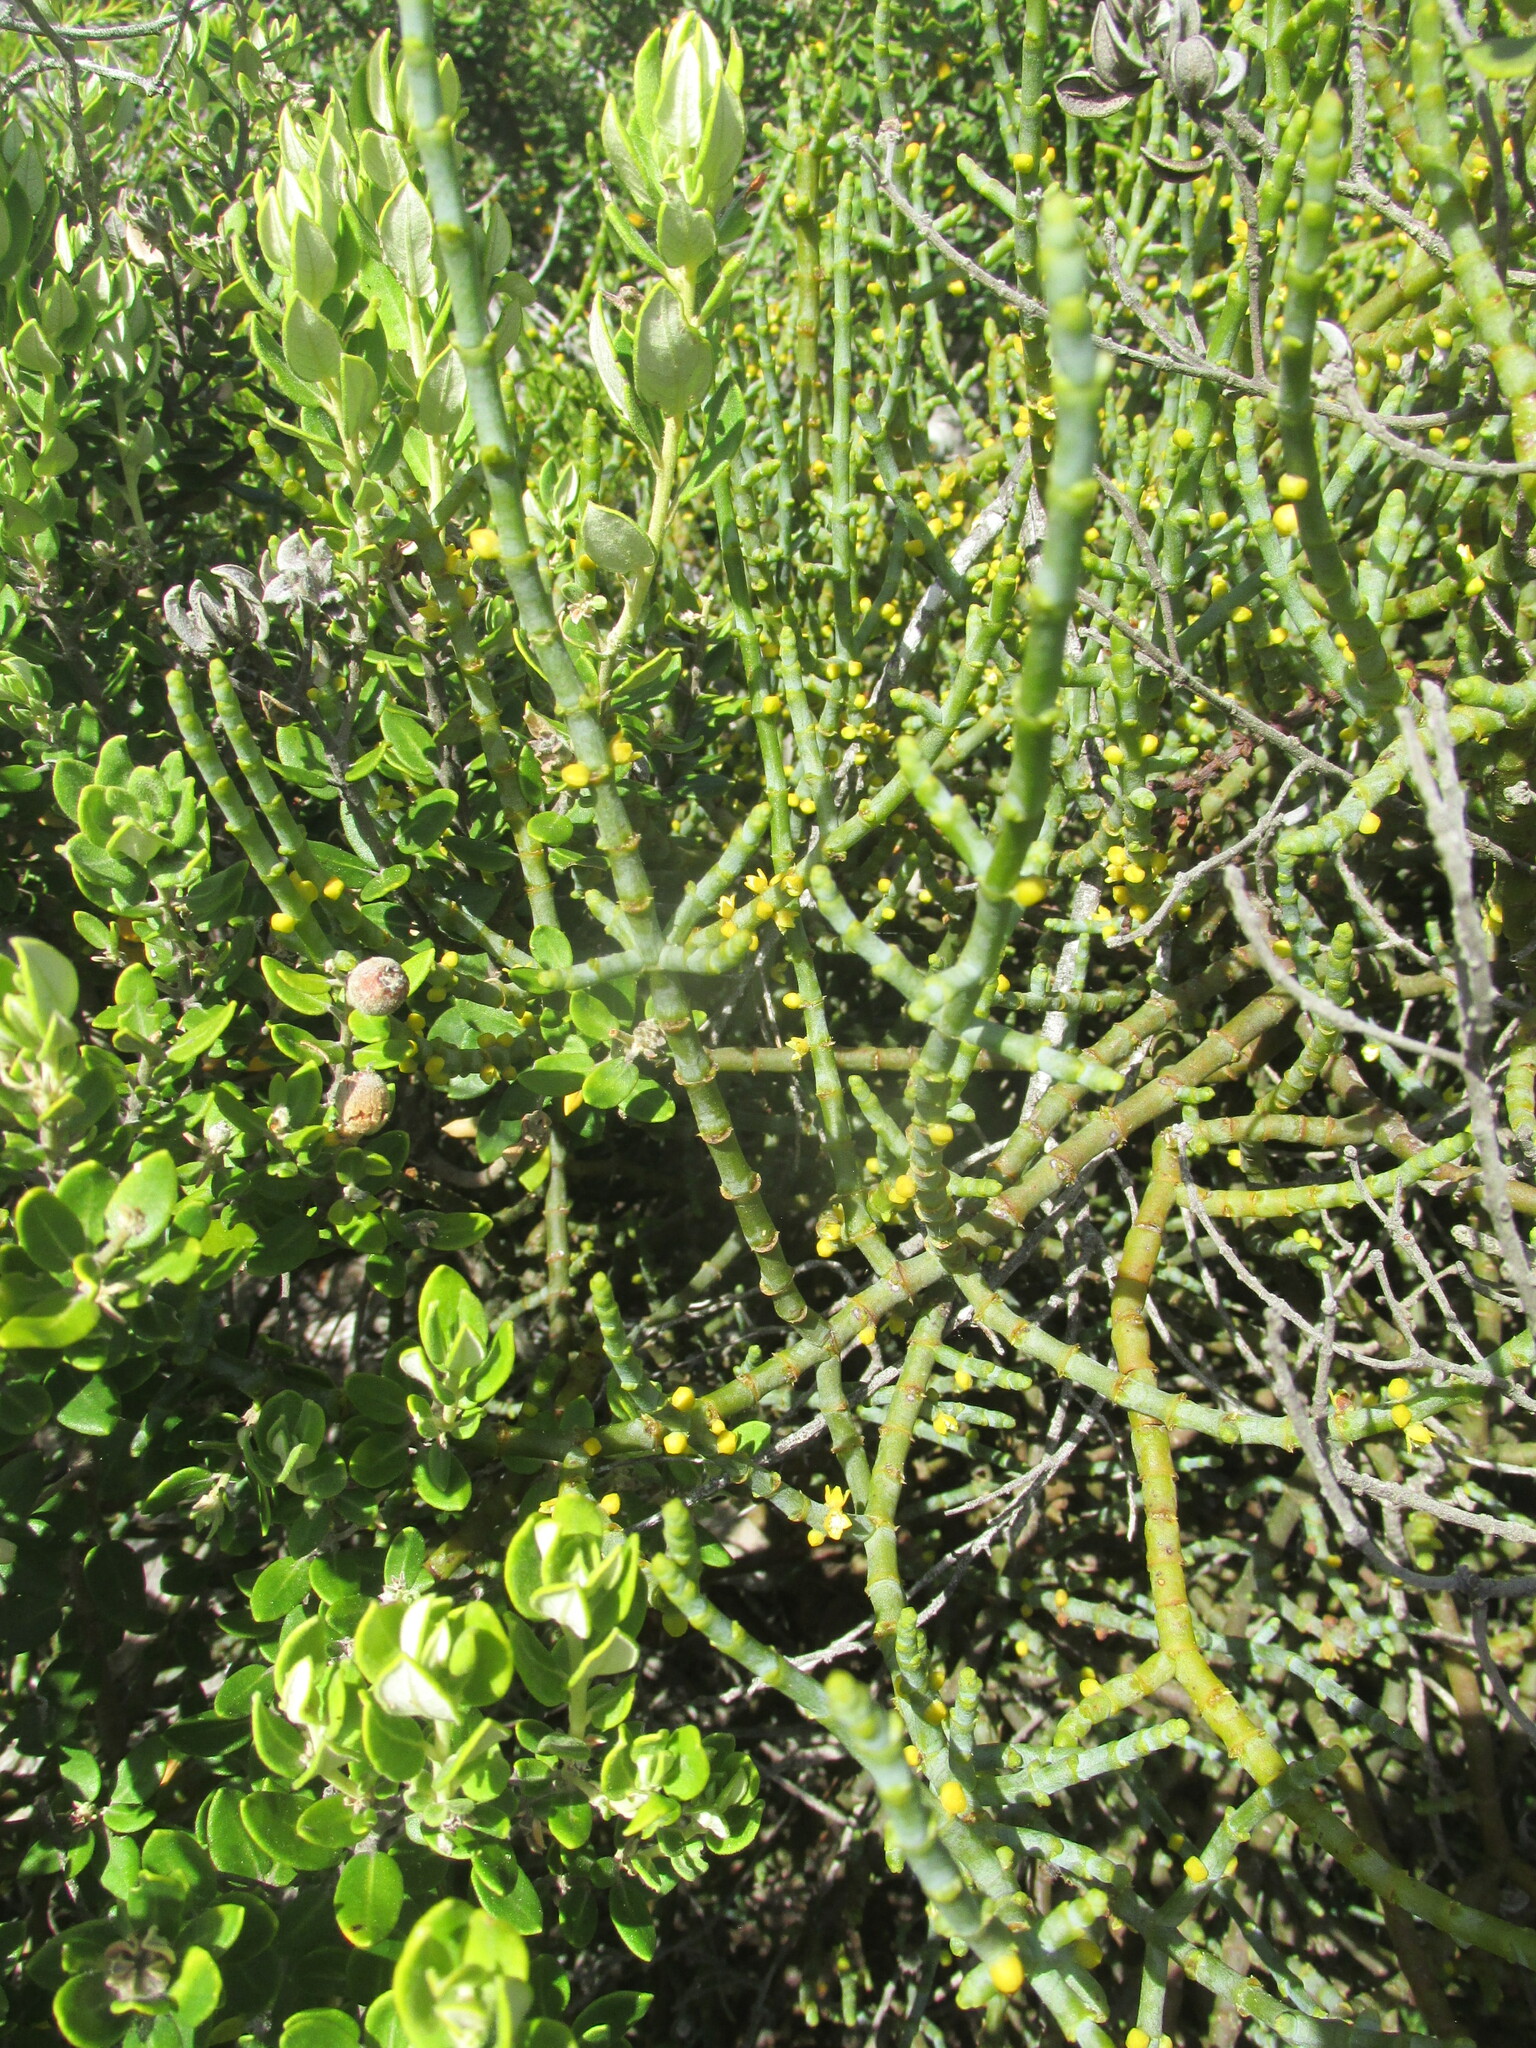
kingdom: Plantae
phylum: Tracheophyta
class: Magnoliopsida
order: Santalales
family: Viscaceae
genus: Viscum
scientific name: Viscum capense
